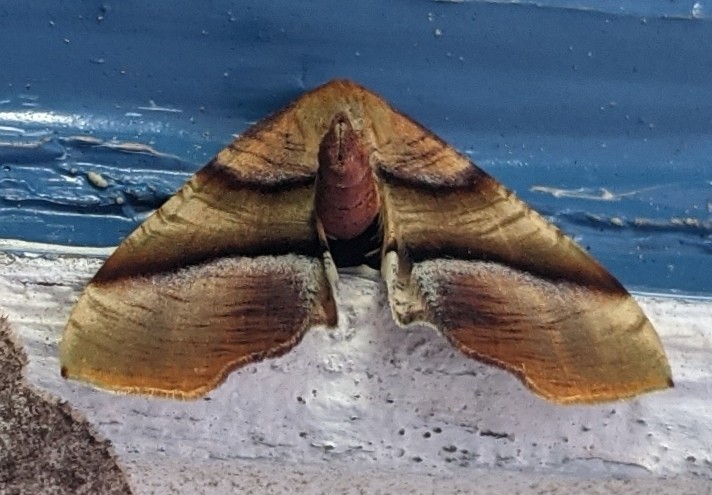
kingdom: Animalia
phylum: Arthropoda
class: Insecta
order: Lepidoptera
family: Geometridae
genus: Plagodis
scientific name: Plagodis phlogosaria
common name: Straight-lined plagodis
